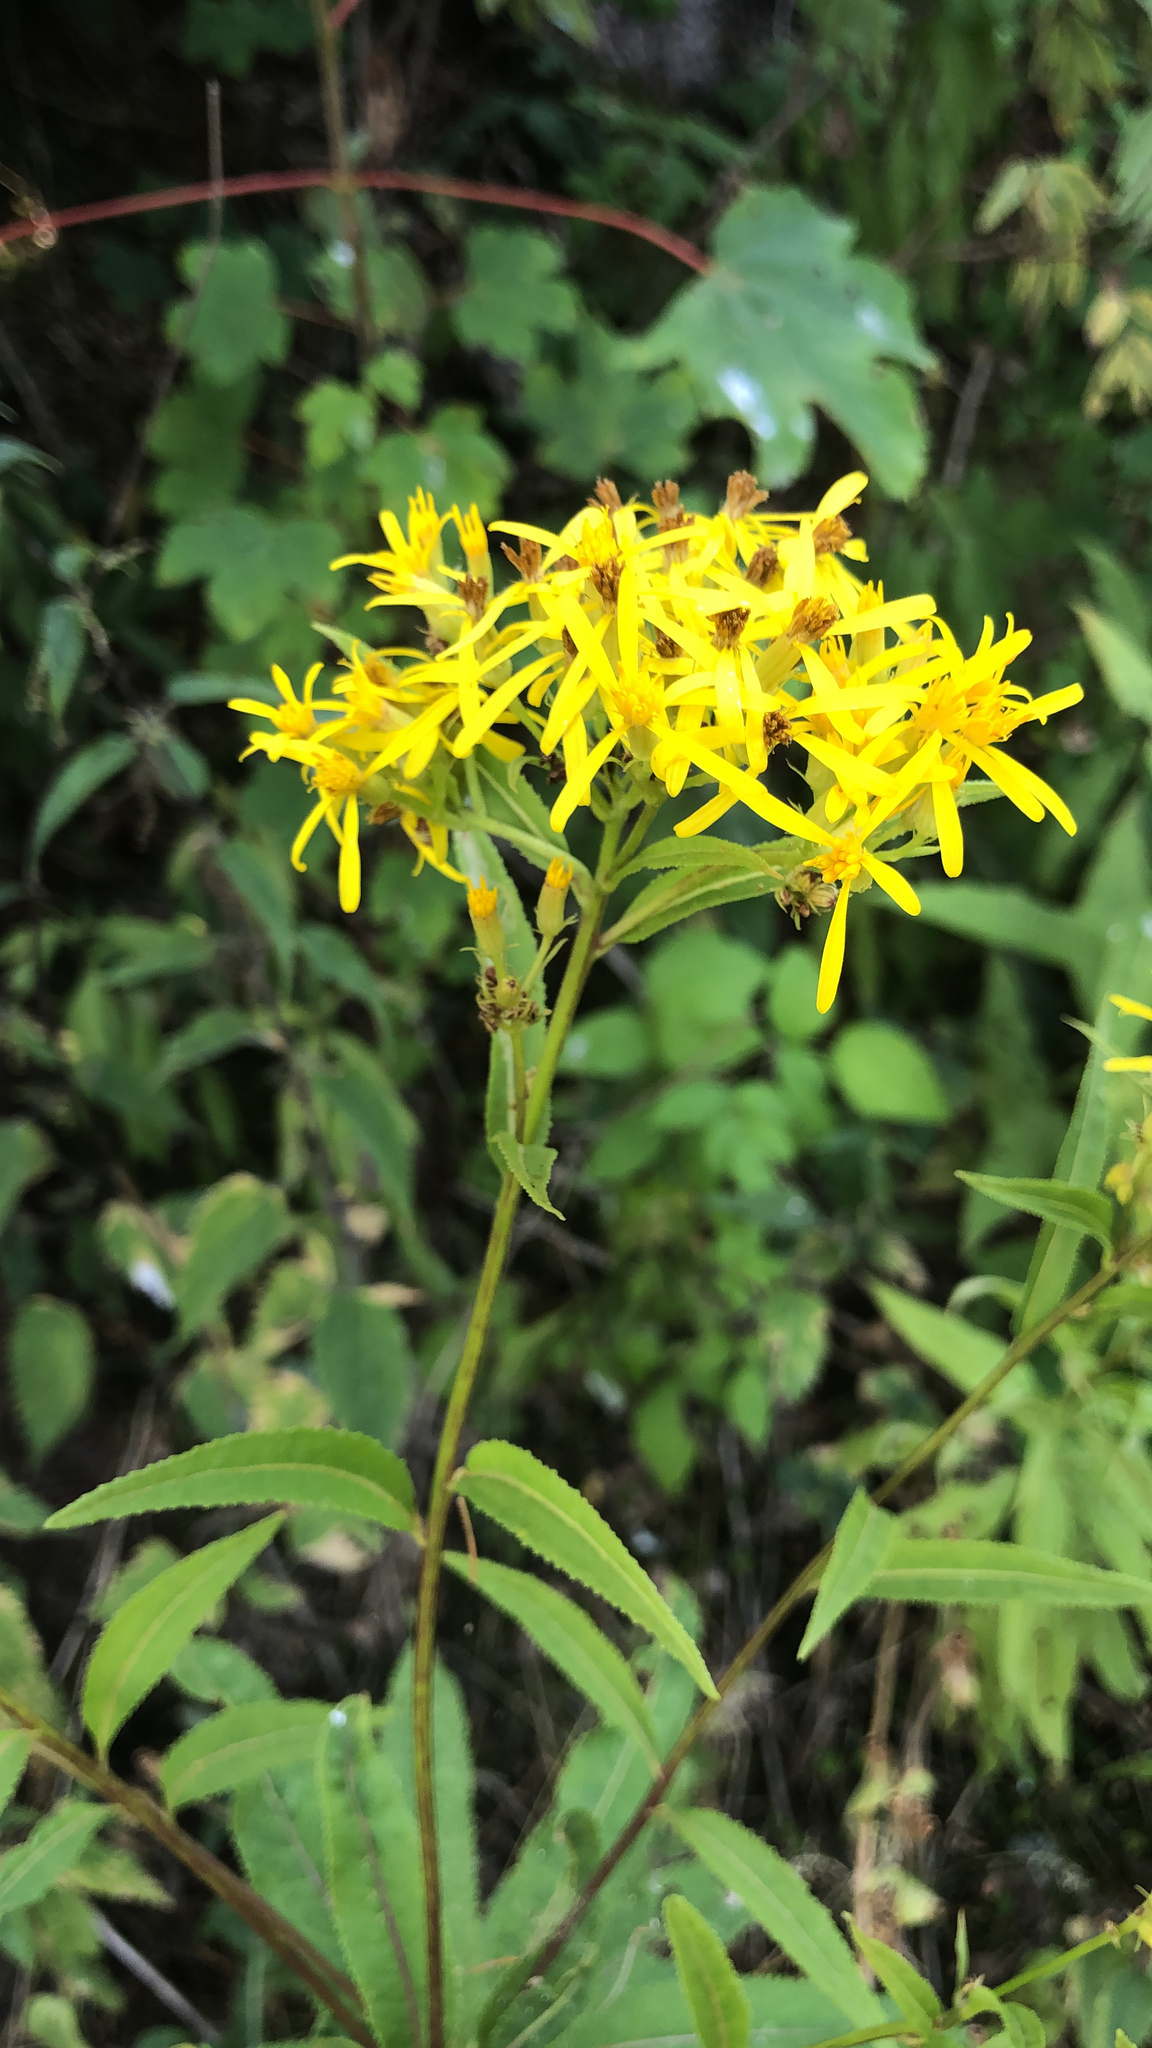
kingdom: Plantae
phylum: Tracheophyta
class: Magnoliopsida
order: Asterales
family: Asteraceae
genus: Senecio
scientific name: Senecio ovatus
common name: Wood ragwort
